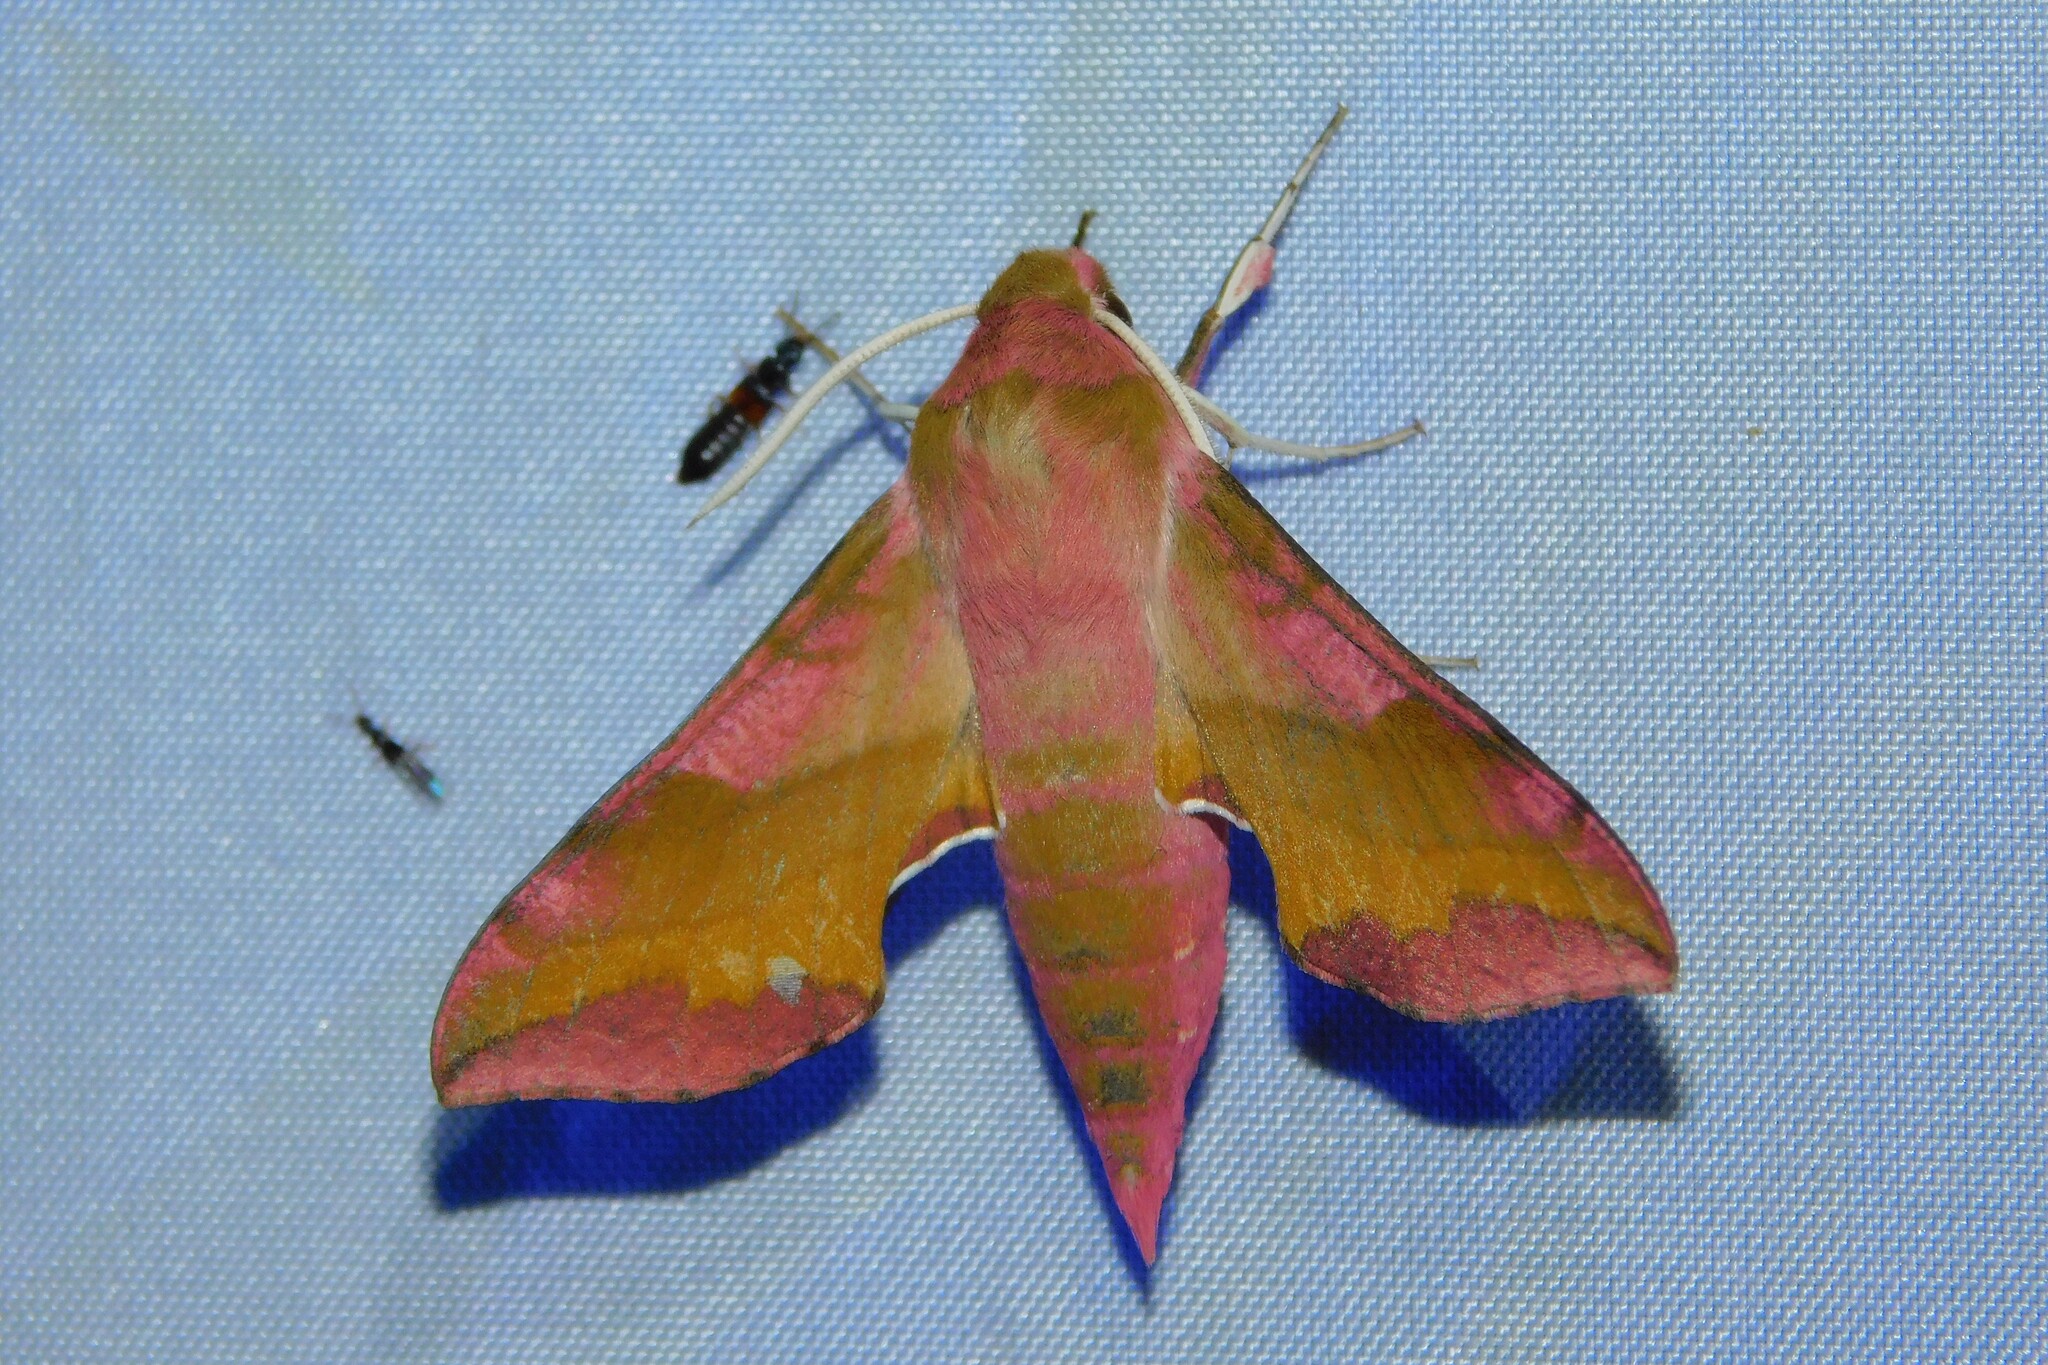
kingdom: Animalia
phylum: Arthropoda
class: Insecta
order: Lepidoptera
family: Sphingidae
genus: Deilephila
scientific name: Deilephila porcellus
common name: Small elephant hawk-moth
